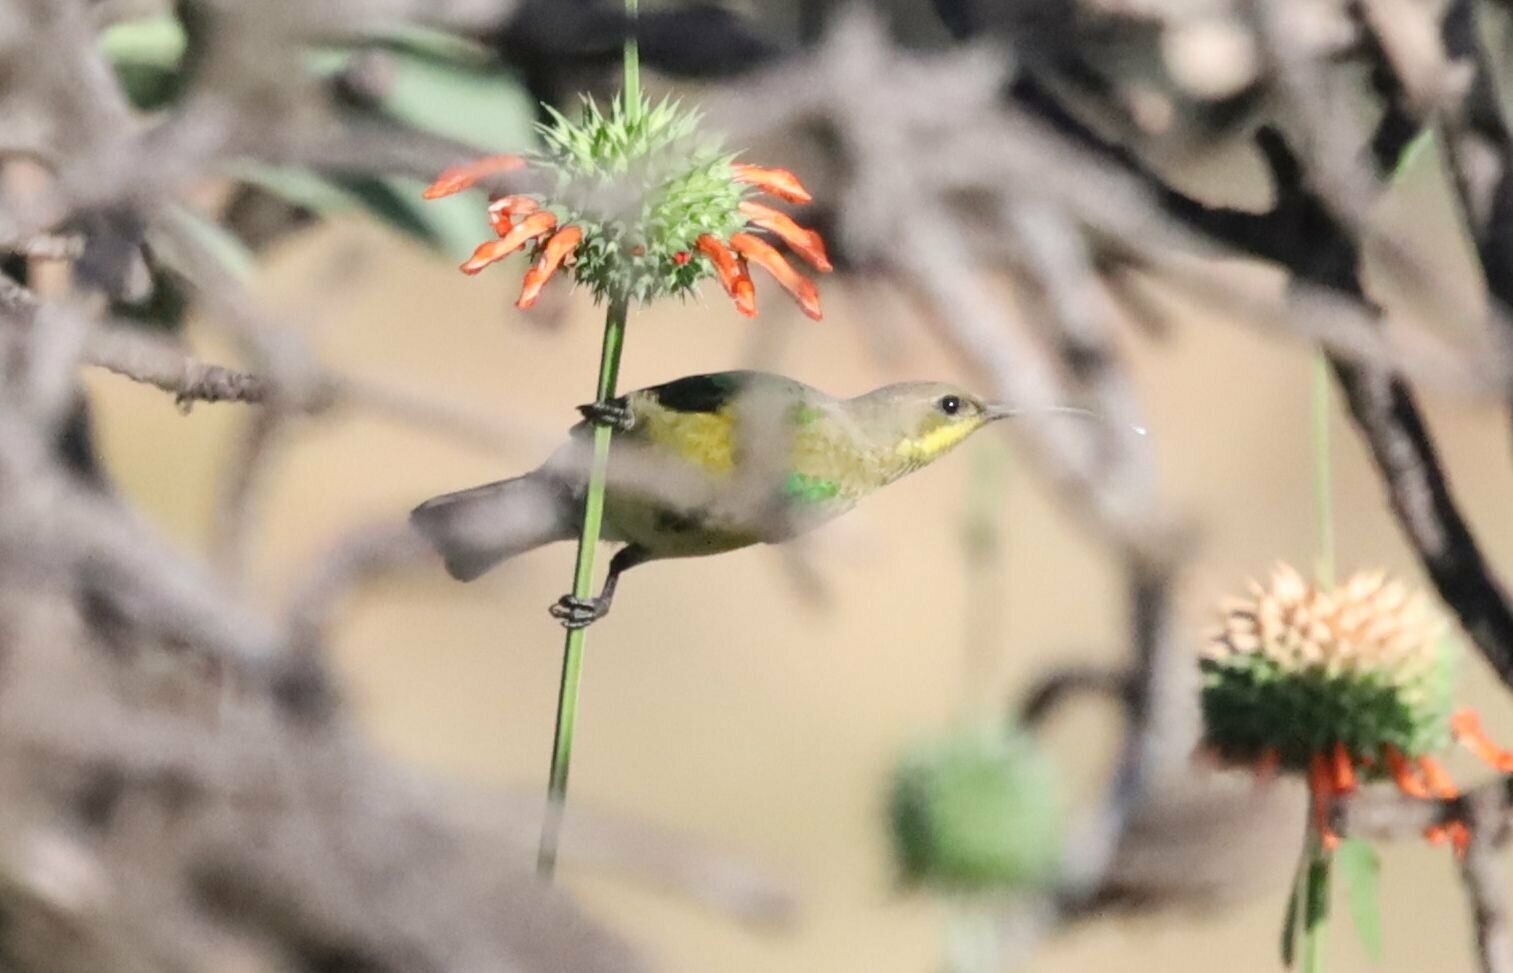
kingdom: Animalia
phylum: Chordata
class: Aves
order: Passeriformes
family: Nectariniidae
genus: Nectarinia
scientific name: Nectarinia famosa
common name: Malachite sunbird
